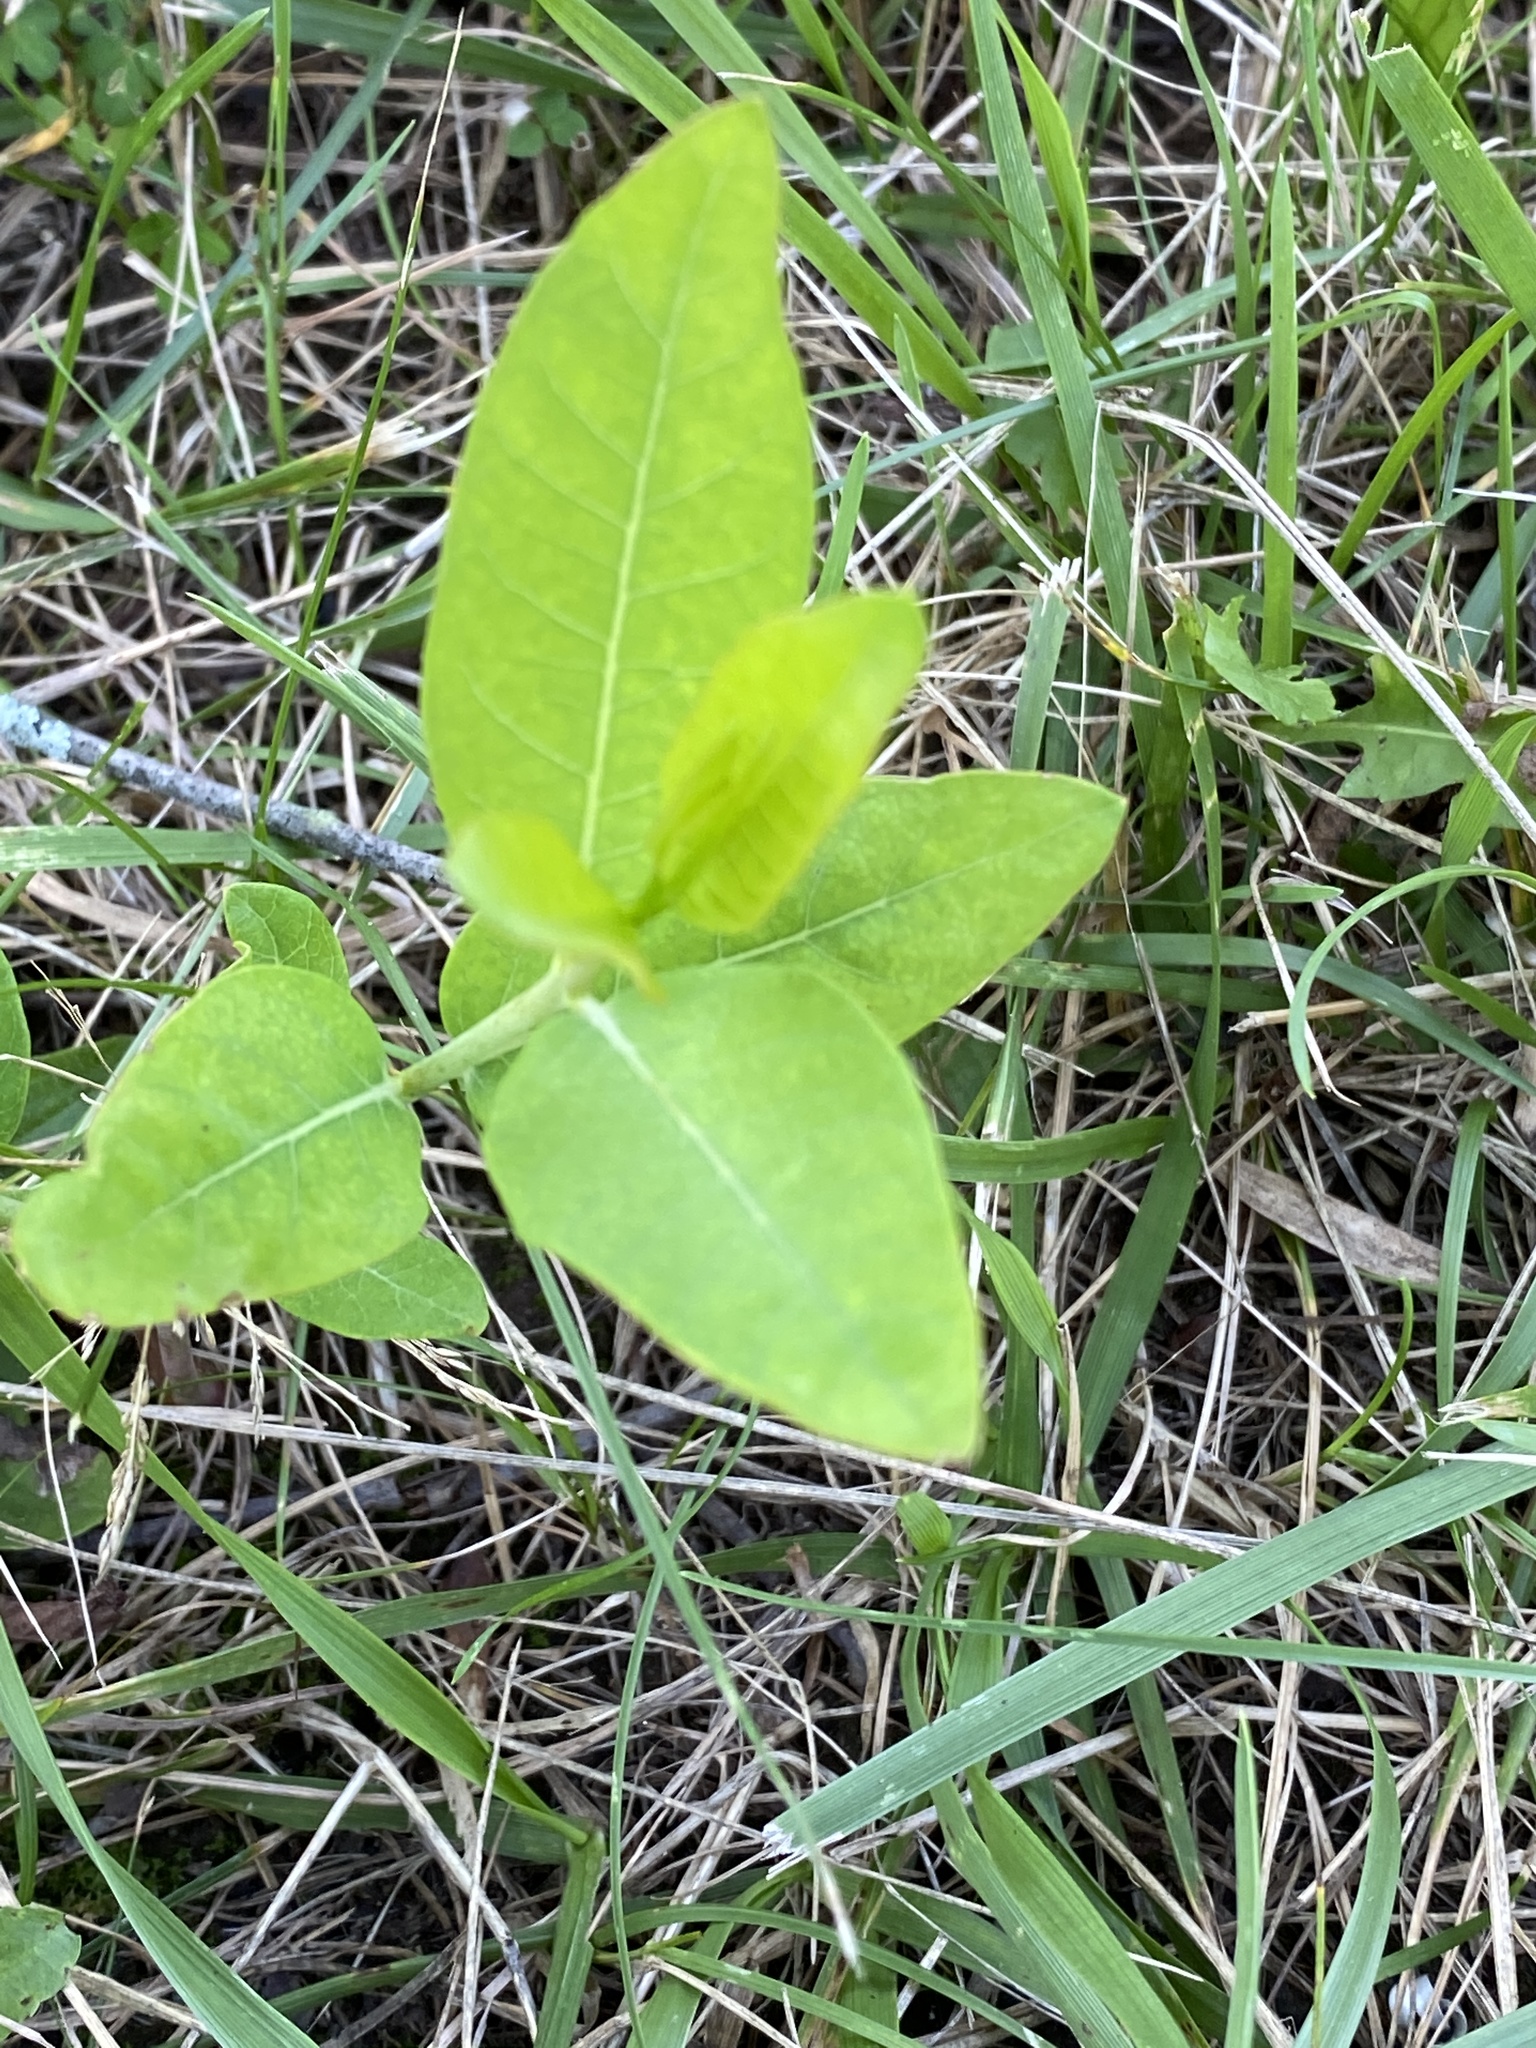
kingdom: Plantae
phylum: Tracheophyta
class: Magnoliopsida
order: Gentianales
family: Apocynaceae
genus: Apocynum
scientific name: Apocynum cannabinum
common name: Hemp dogbane
